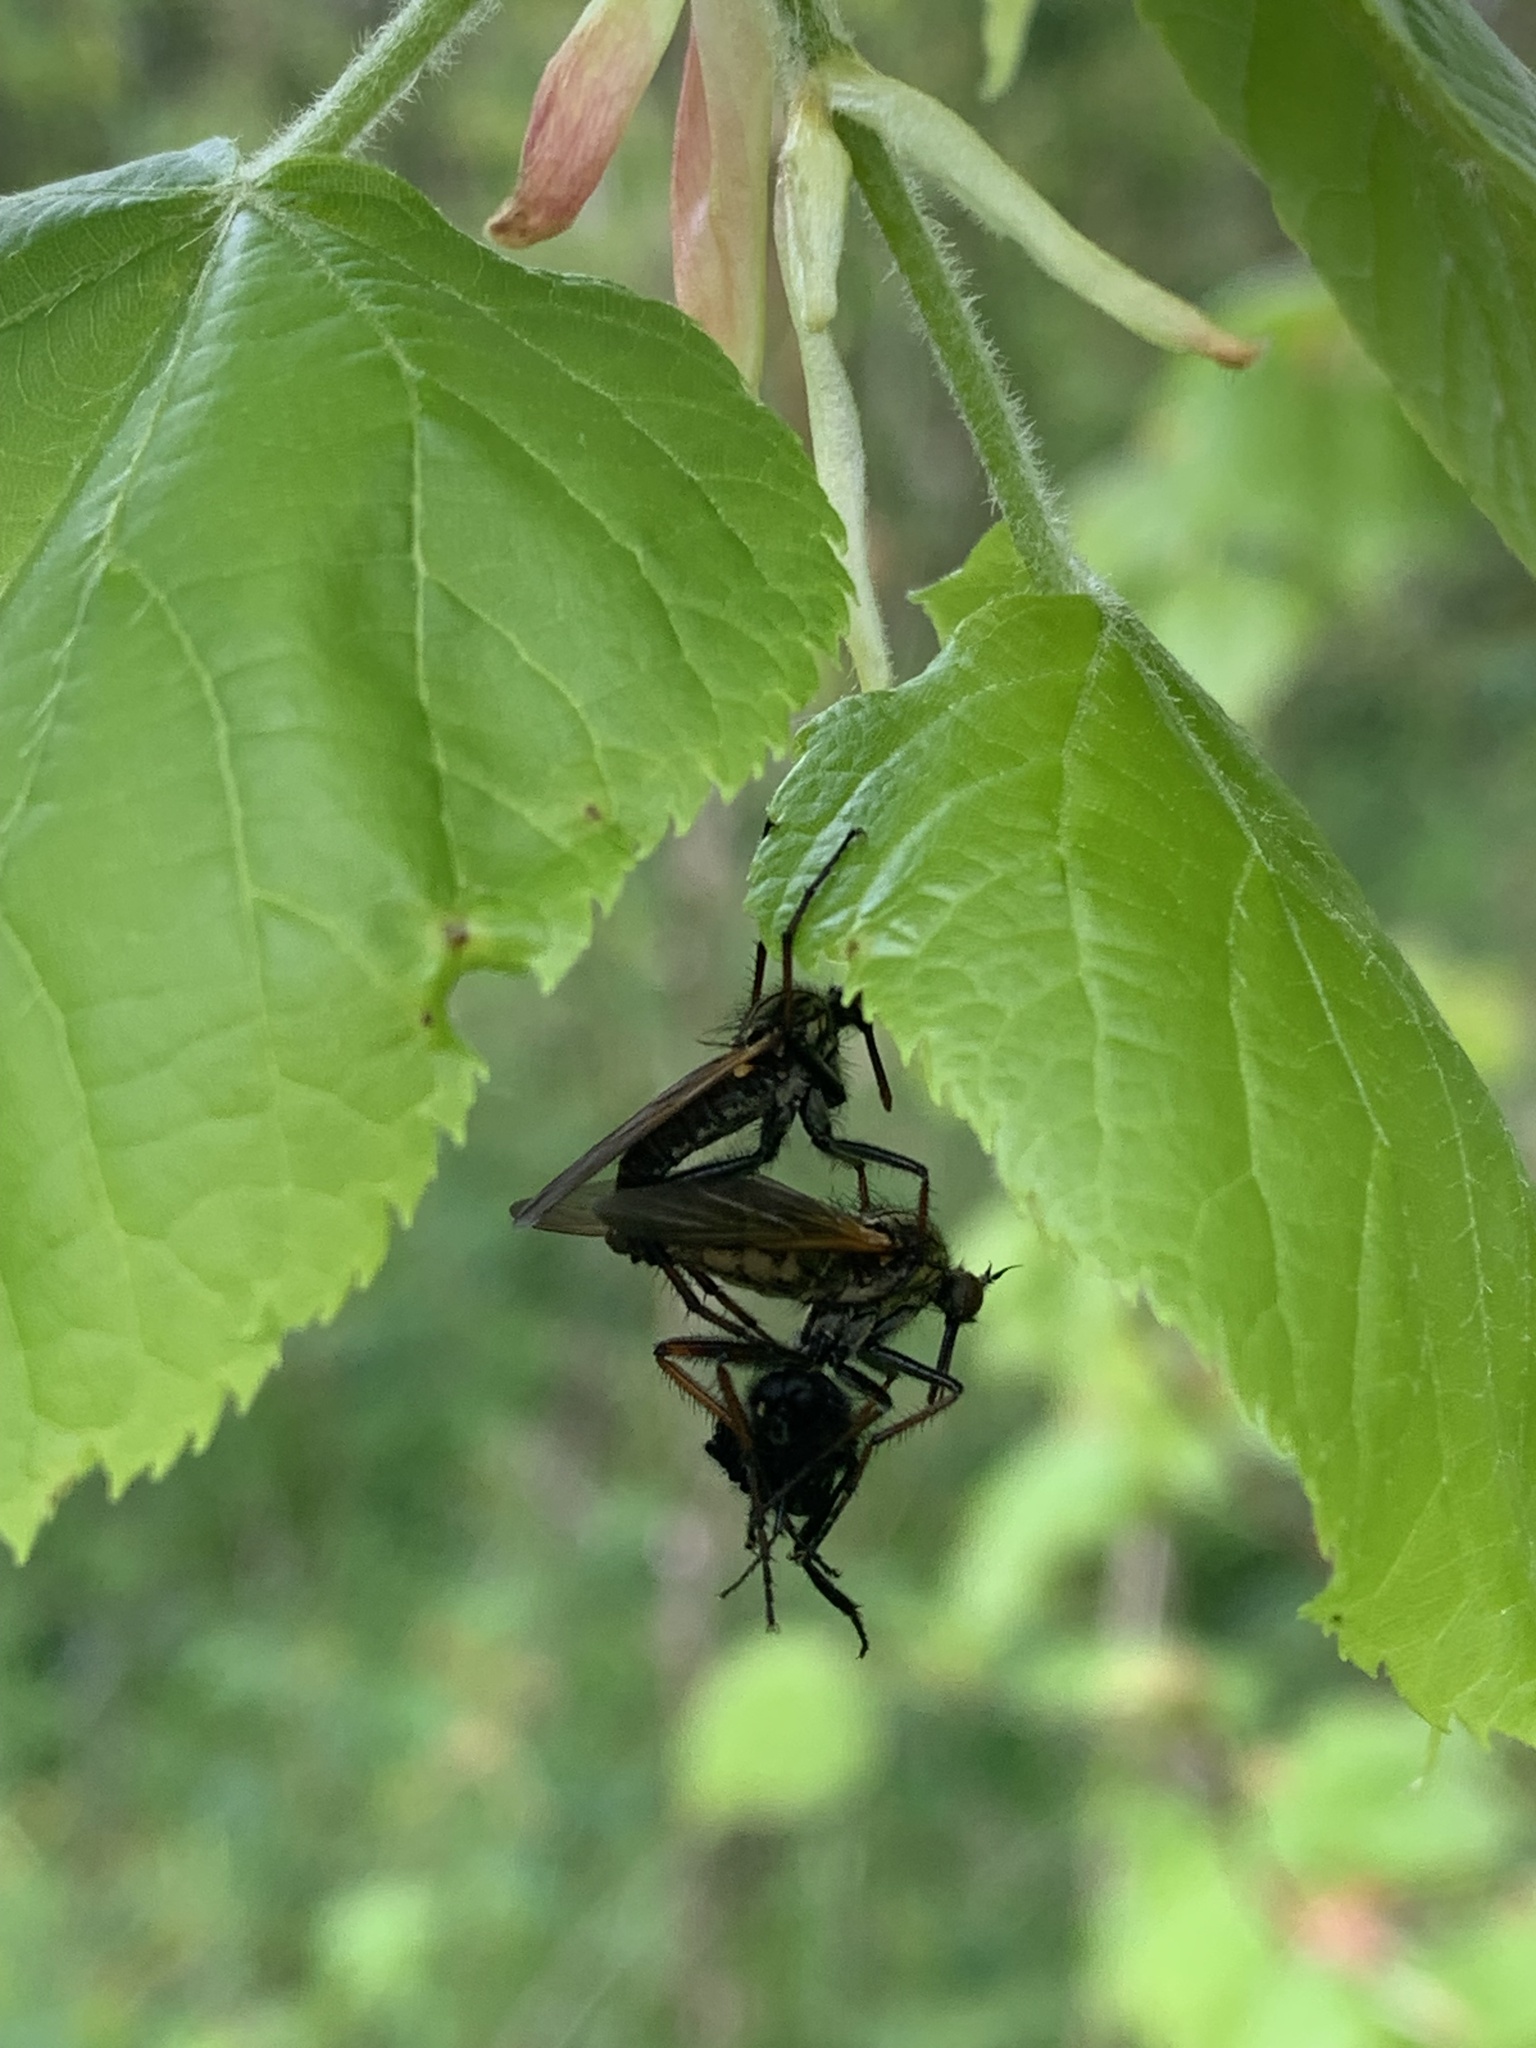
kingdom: Animalia
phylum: Arthropoda
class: Insecta
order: Diptera
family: Empididae
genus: Empis
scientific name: Empis tessellata
